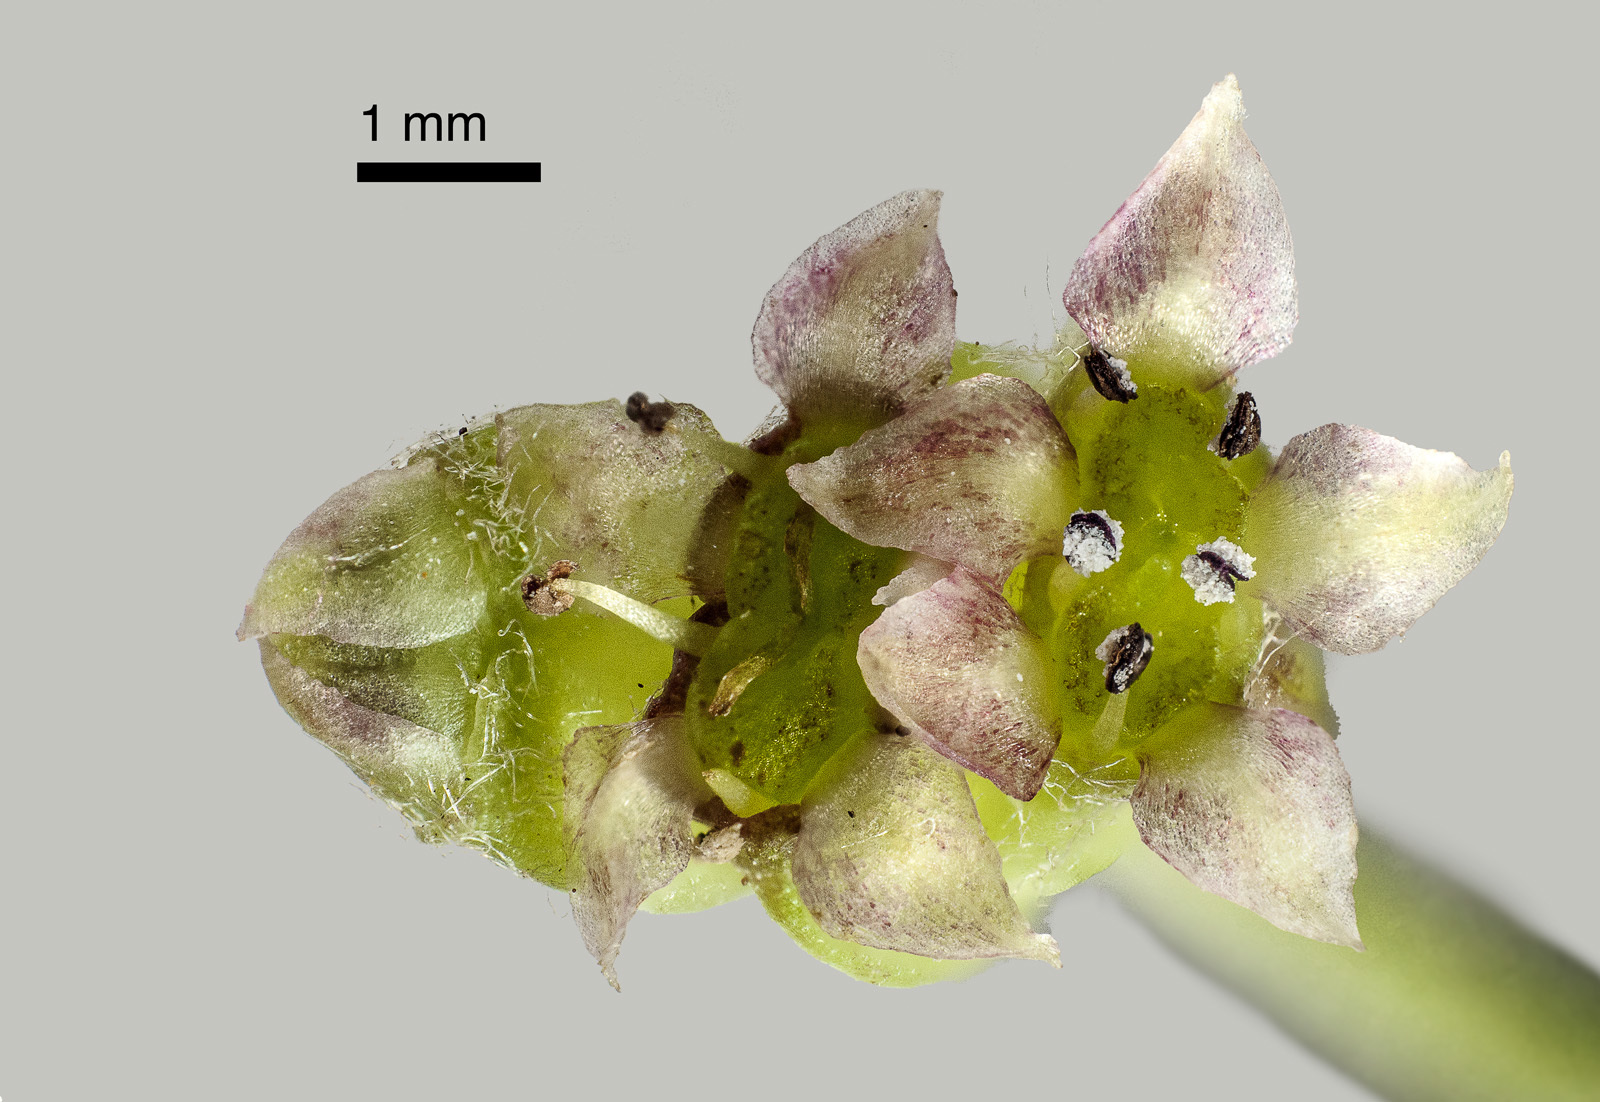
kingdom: Plantae
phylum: Tracheophyta
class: Magnoliopsida
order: Apiales
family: Apiaceae
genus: Centella
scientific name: Centella uniflora
